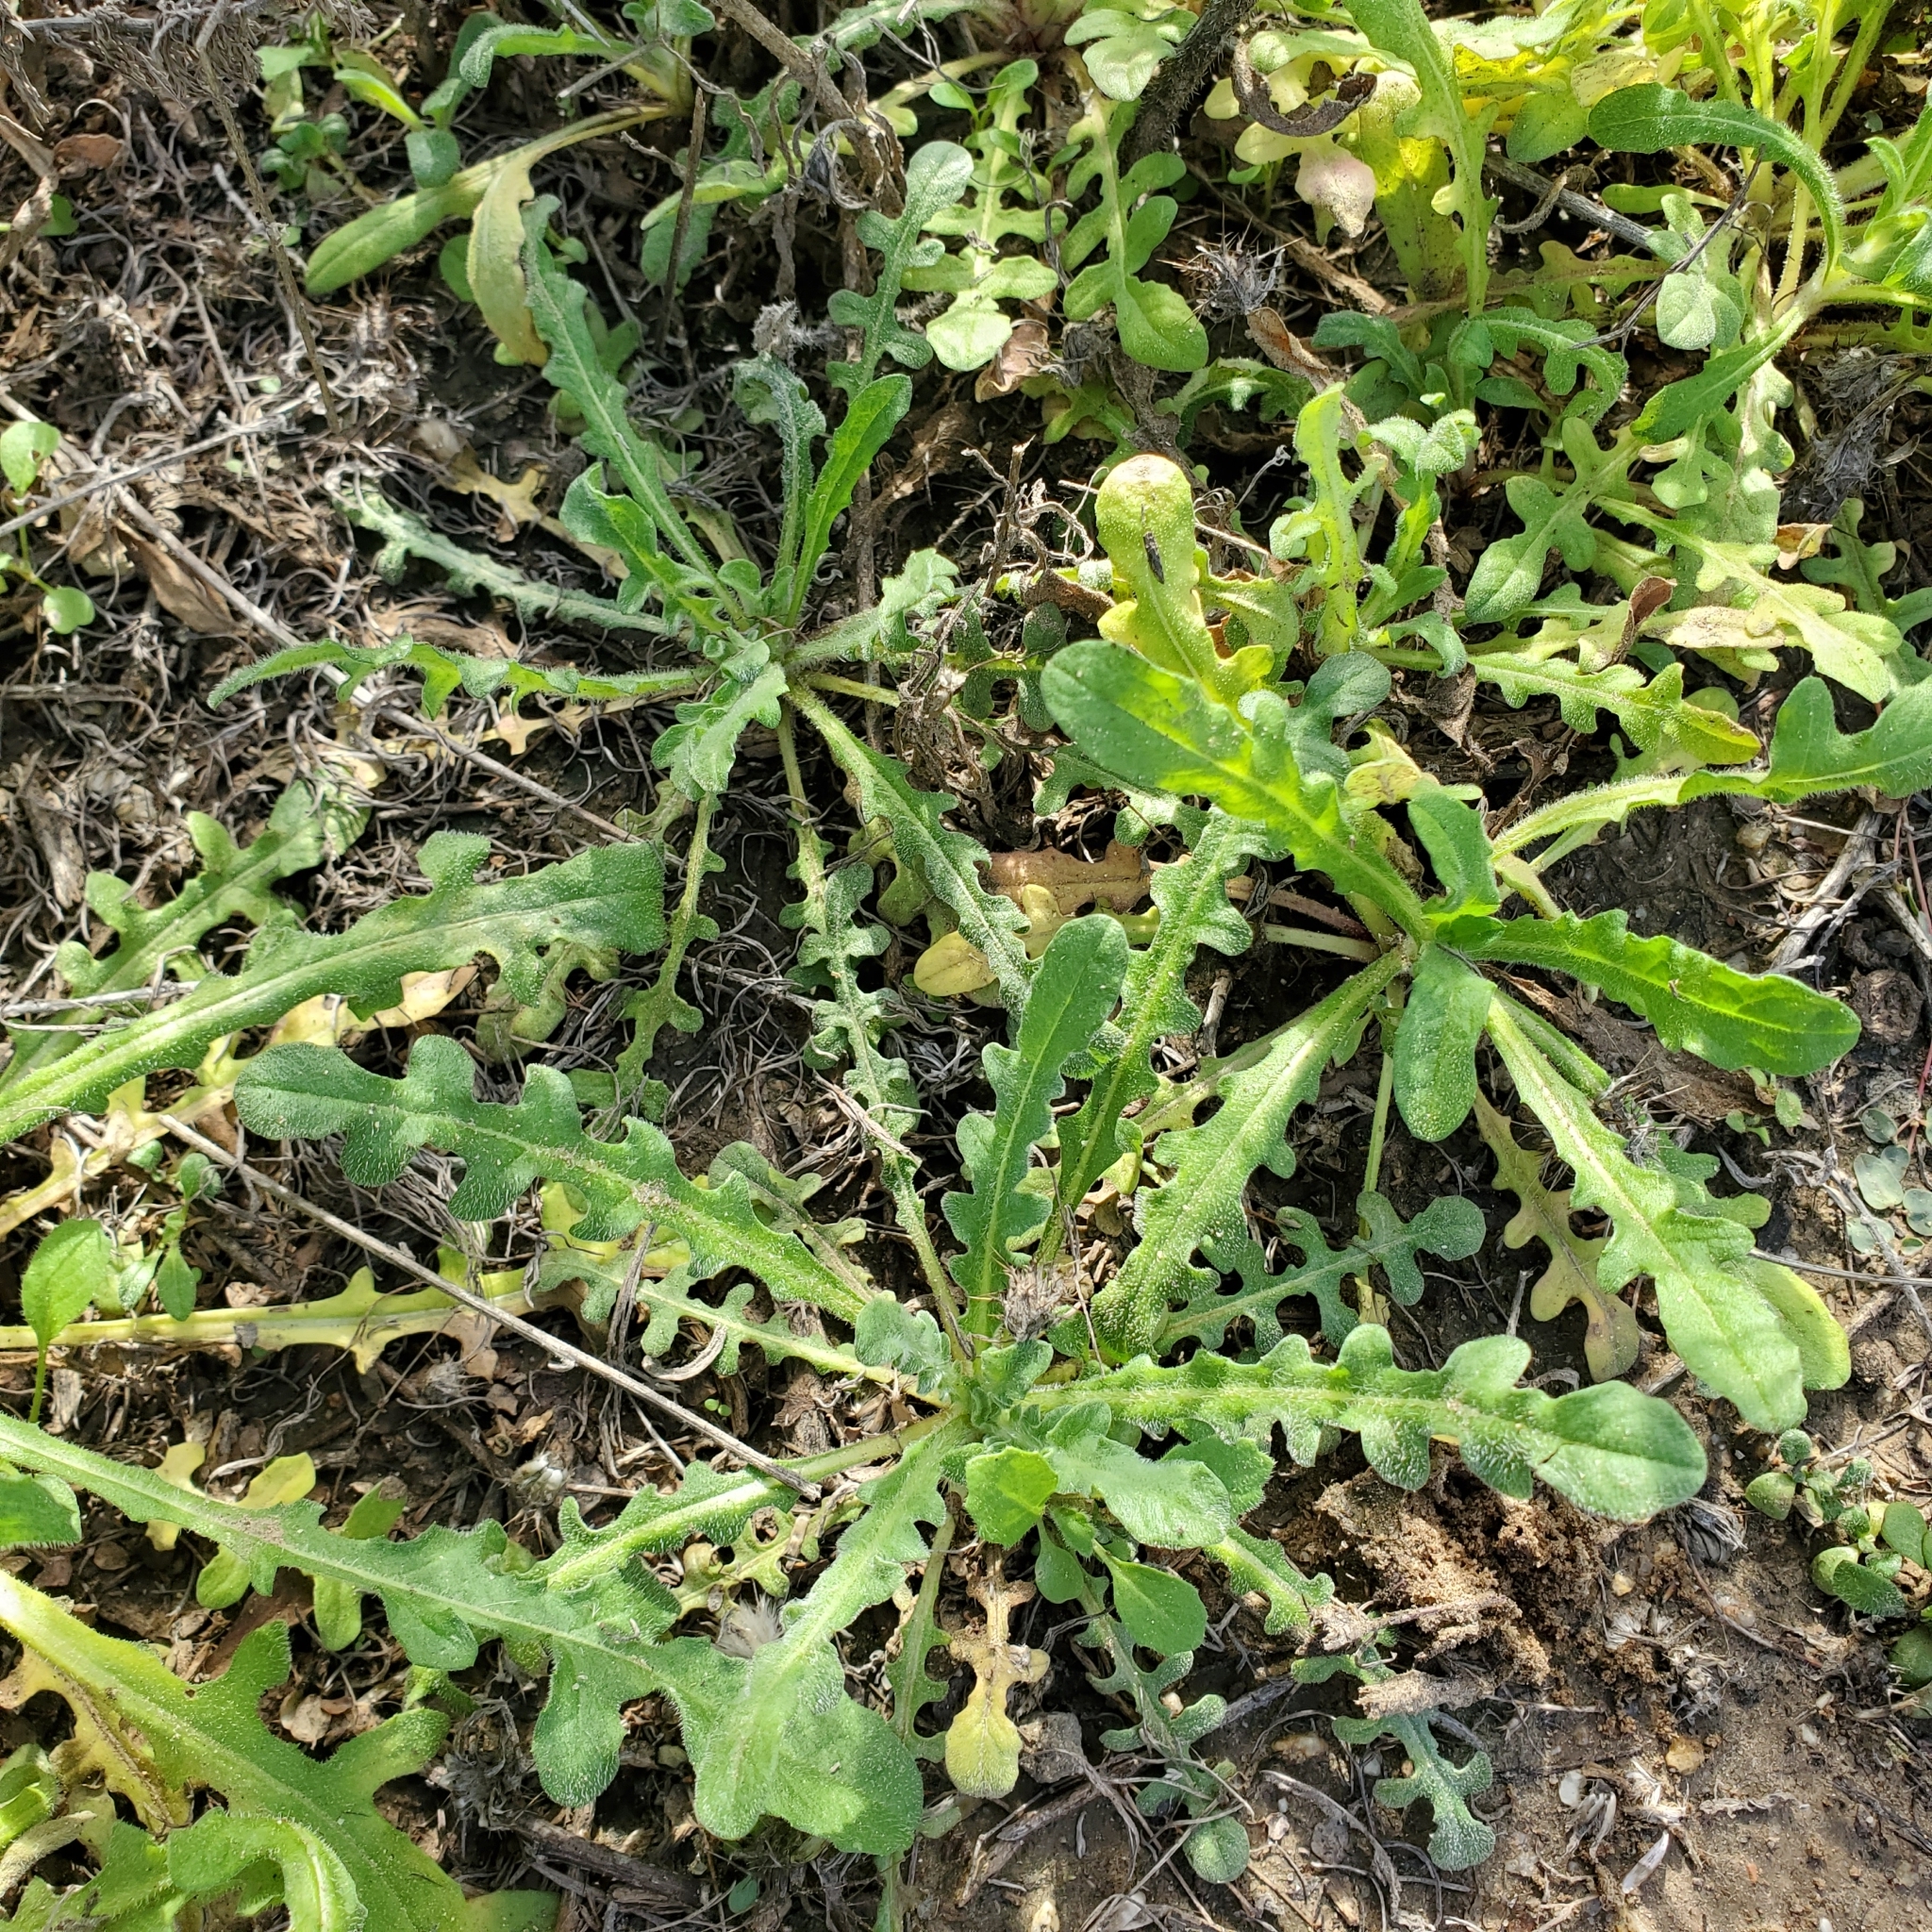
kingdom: Plantae
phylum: Tracheophyta
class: Magnoliopsida
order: Asterales
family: Asteraceae
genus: Centaurea
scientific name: Centaurea melitensis
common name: Maltese star-thistle
